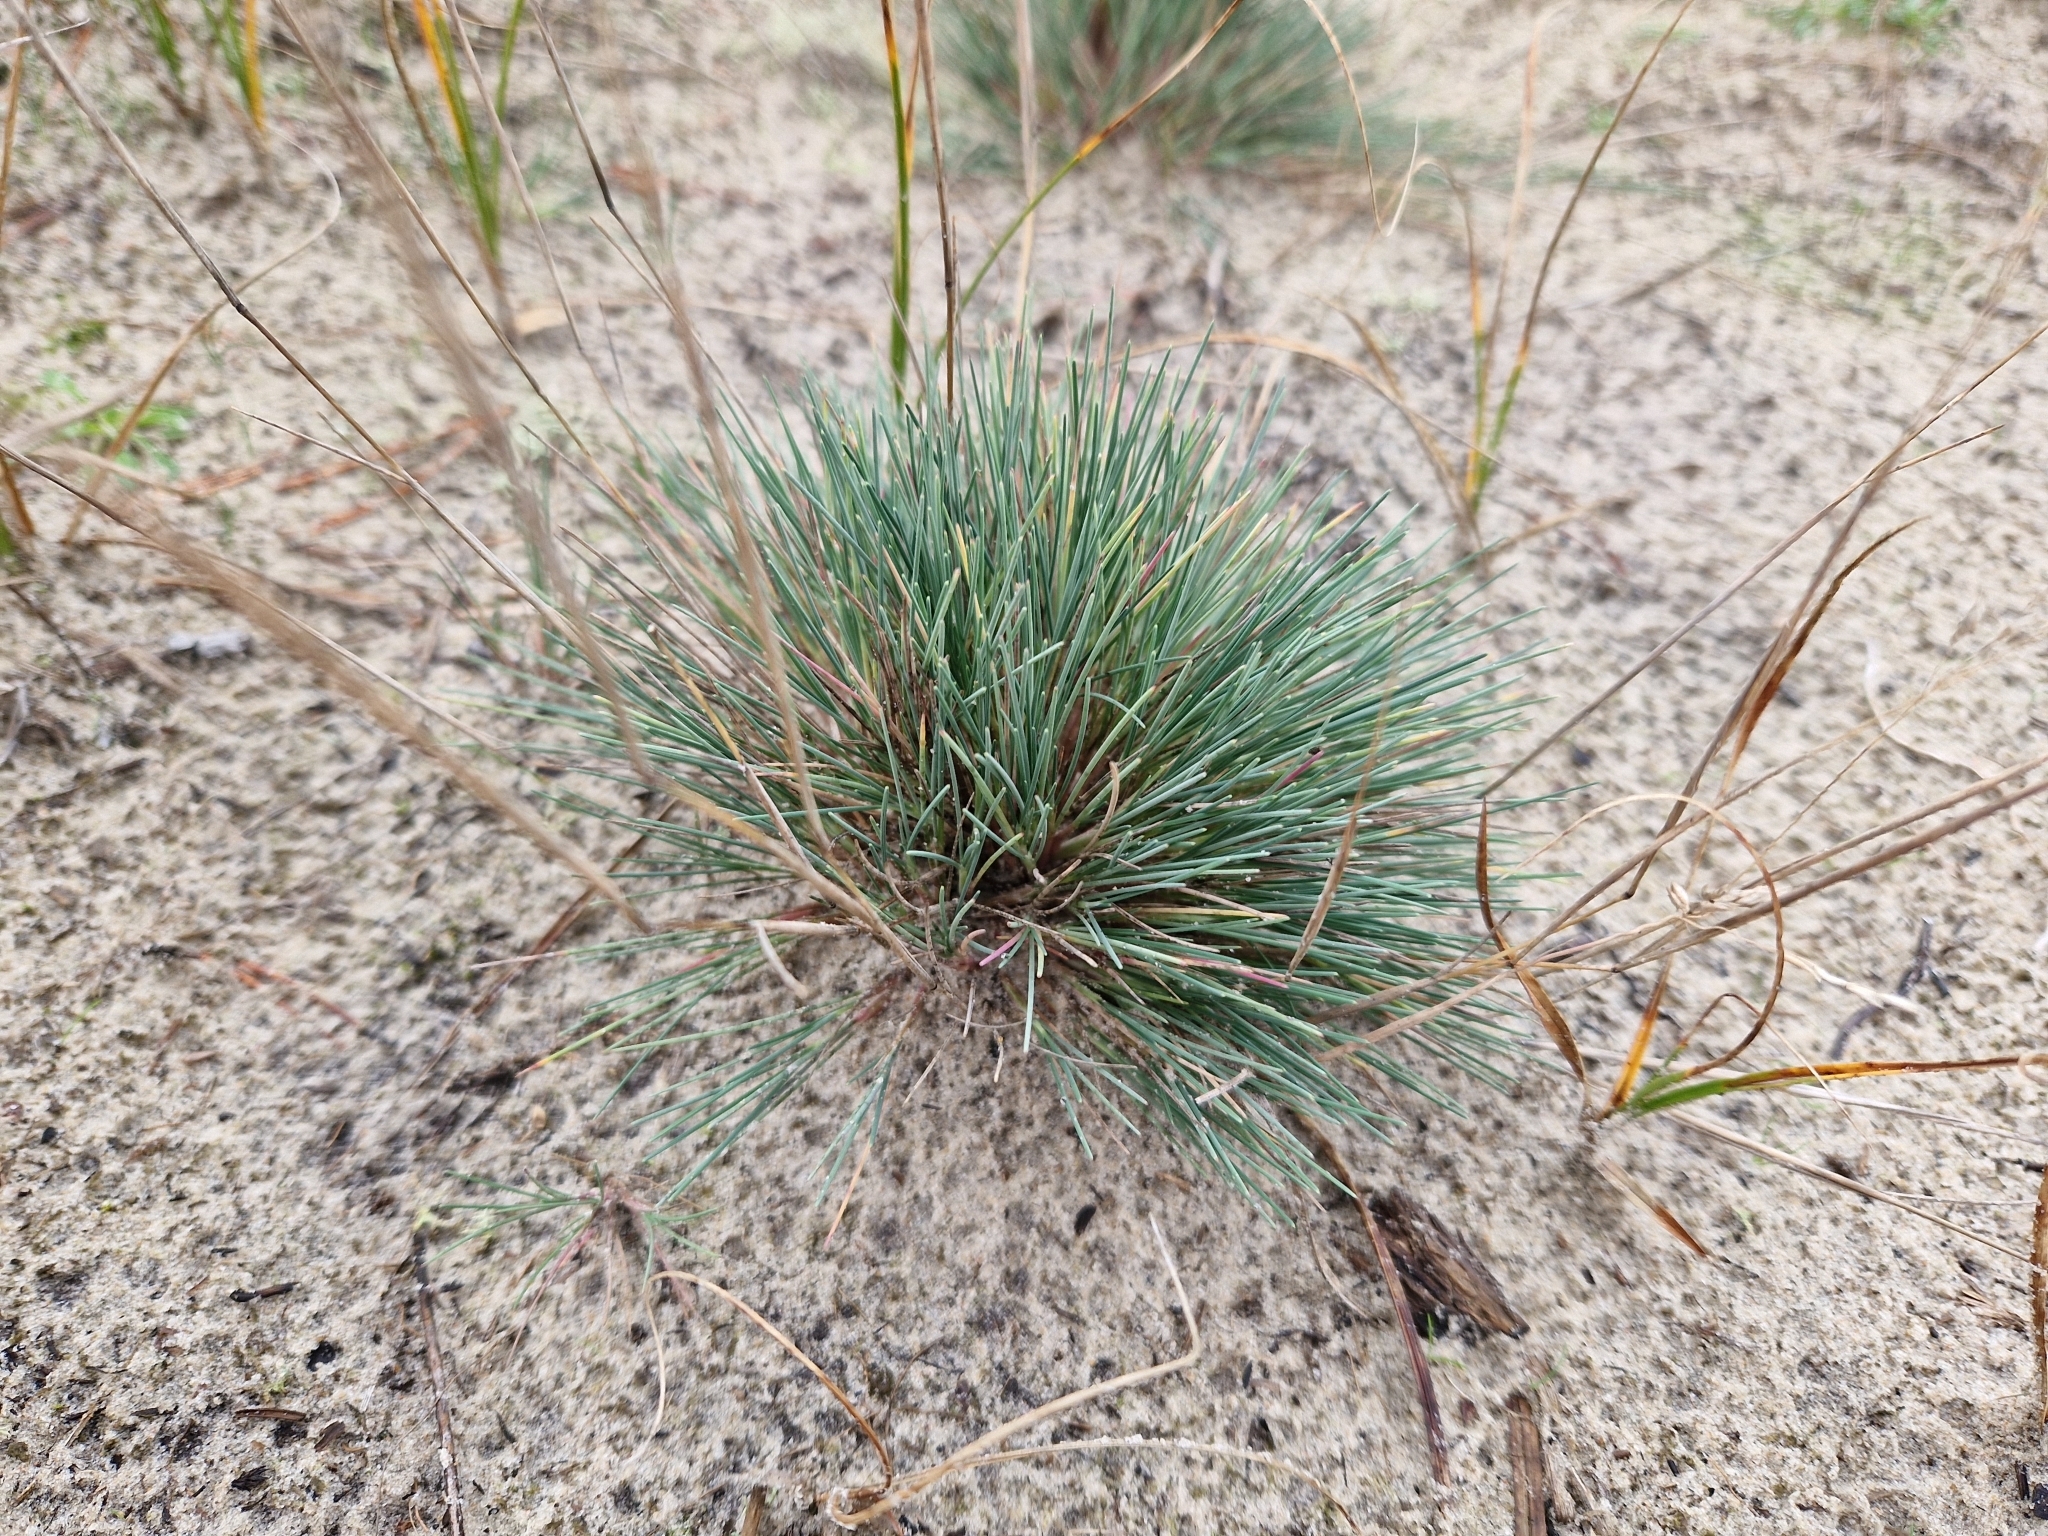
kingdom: Plantae
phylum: Tracheophyta
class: Liliopsida
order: Poales
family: Poaceae
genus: Corynephorus
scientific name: Corynephorus canescens
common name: Grey hair-grass
